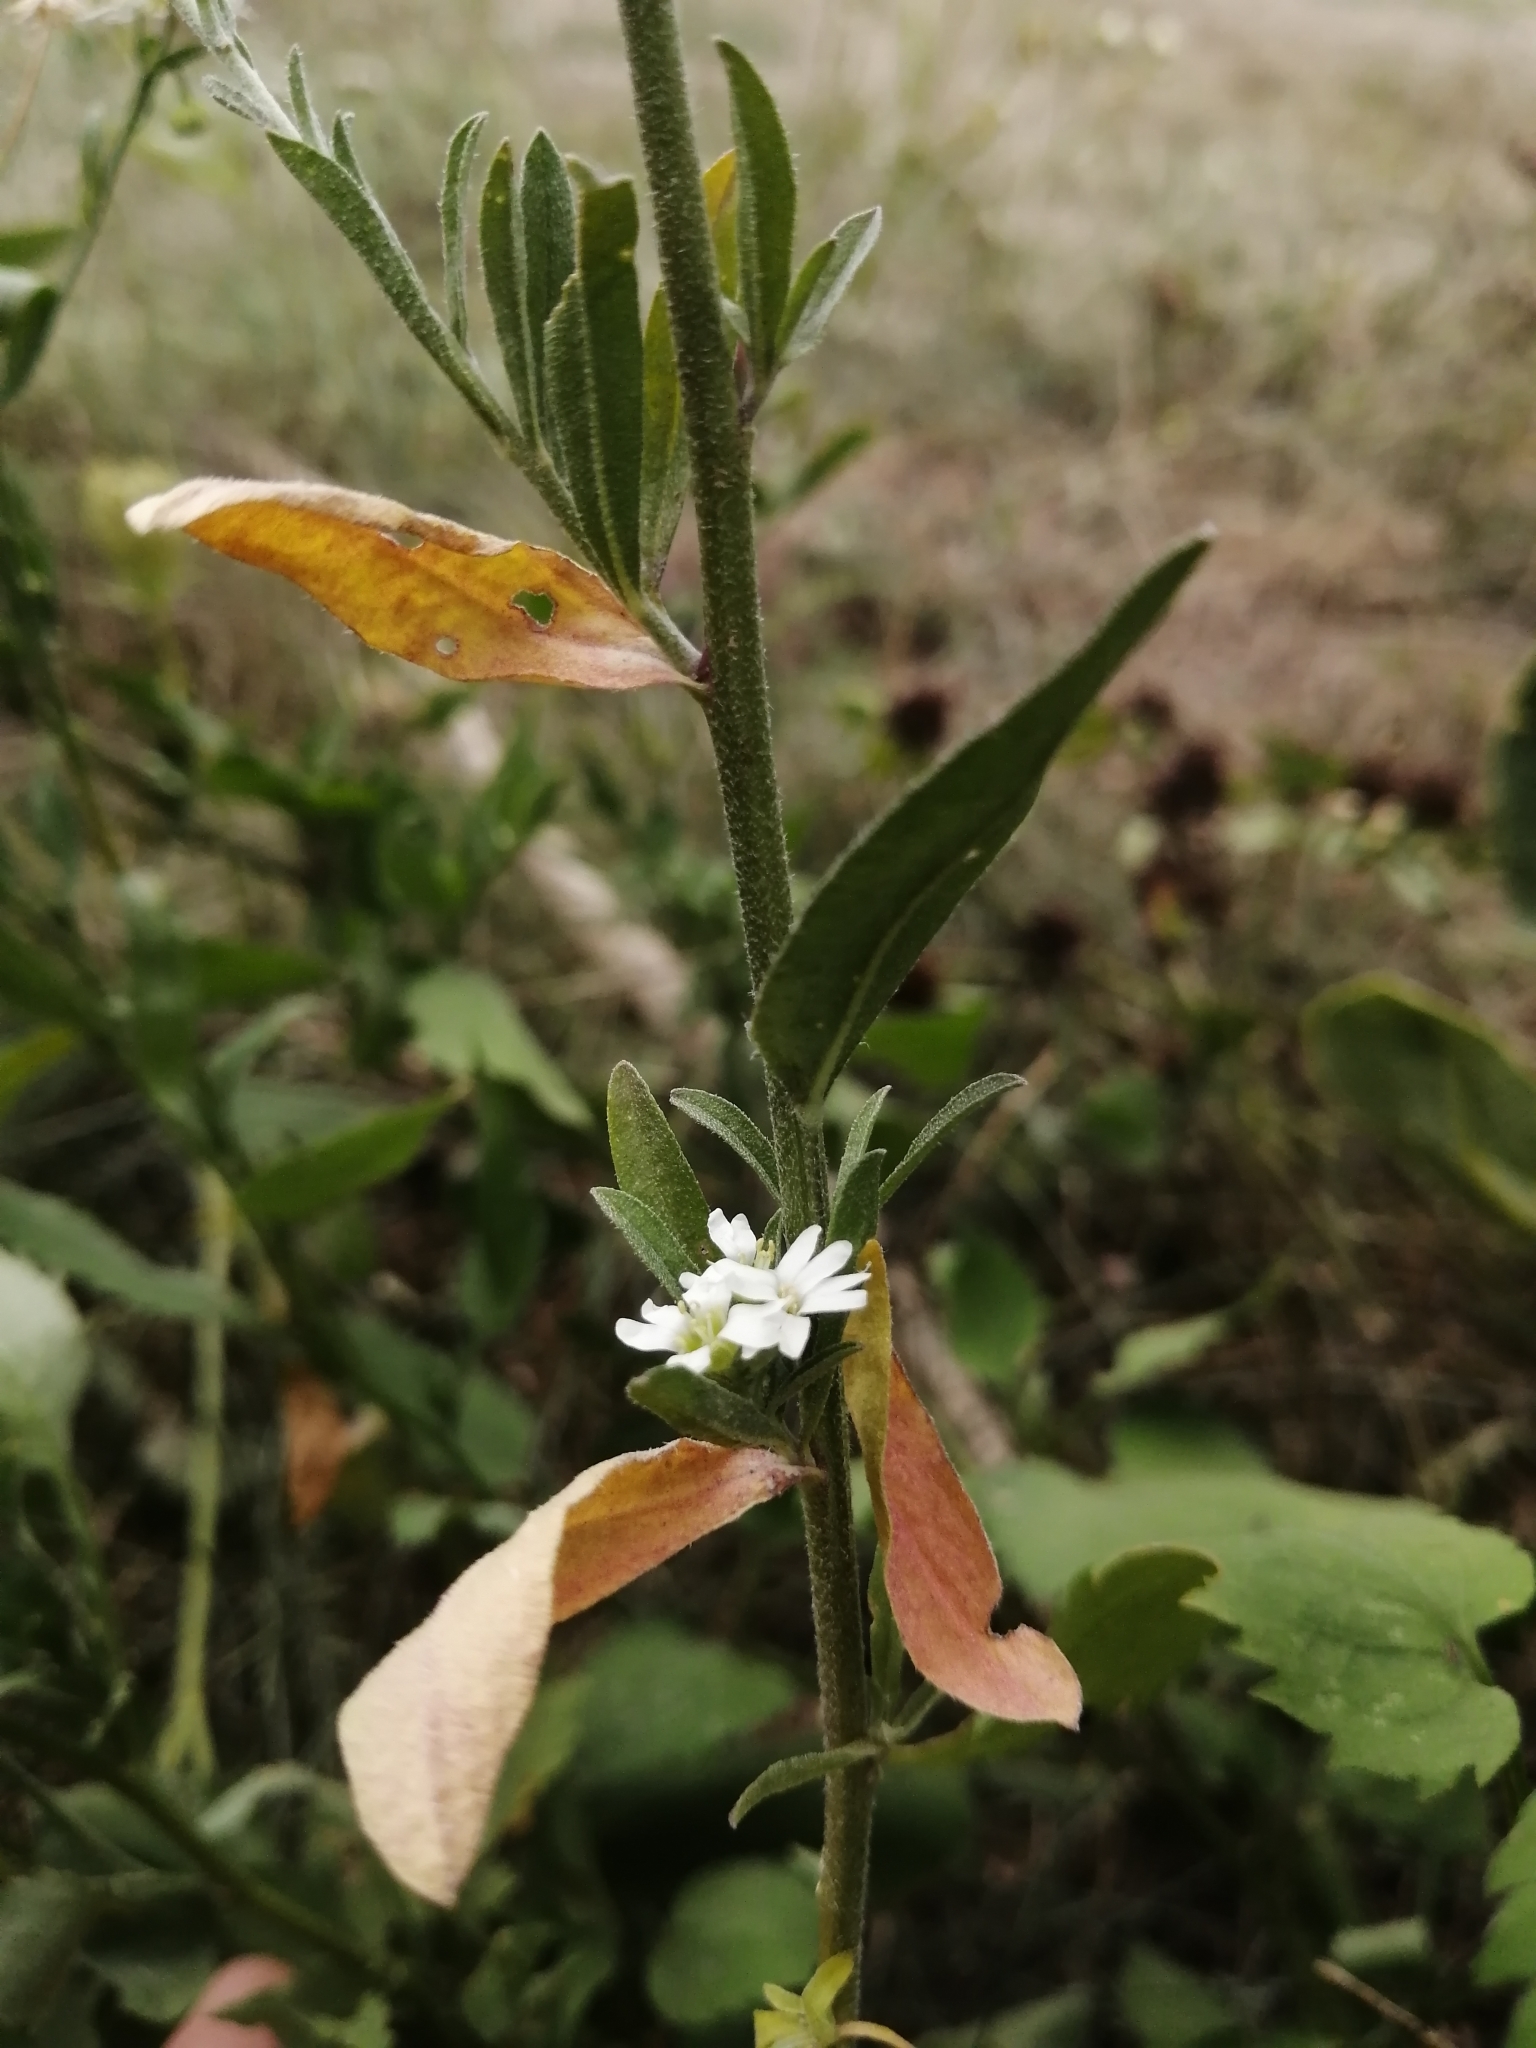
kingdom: Plantae
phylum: Tracheophyta
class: Magnoliopsida
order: Brassicales
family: Brassicaceae
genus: Berteroa
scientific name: Berteroa incana
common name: Hoary alison
